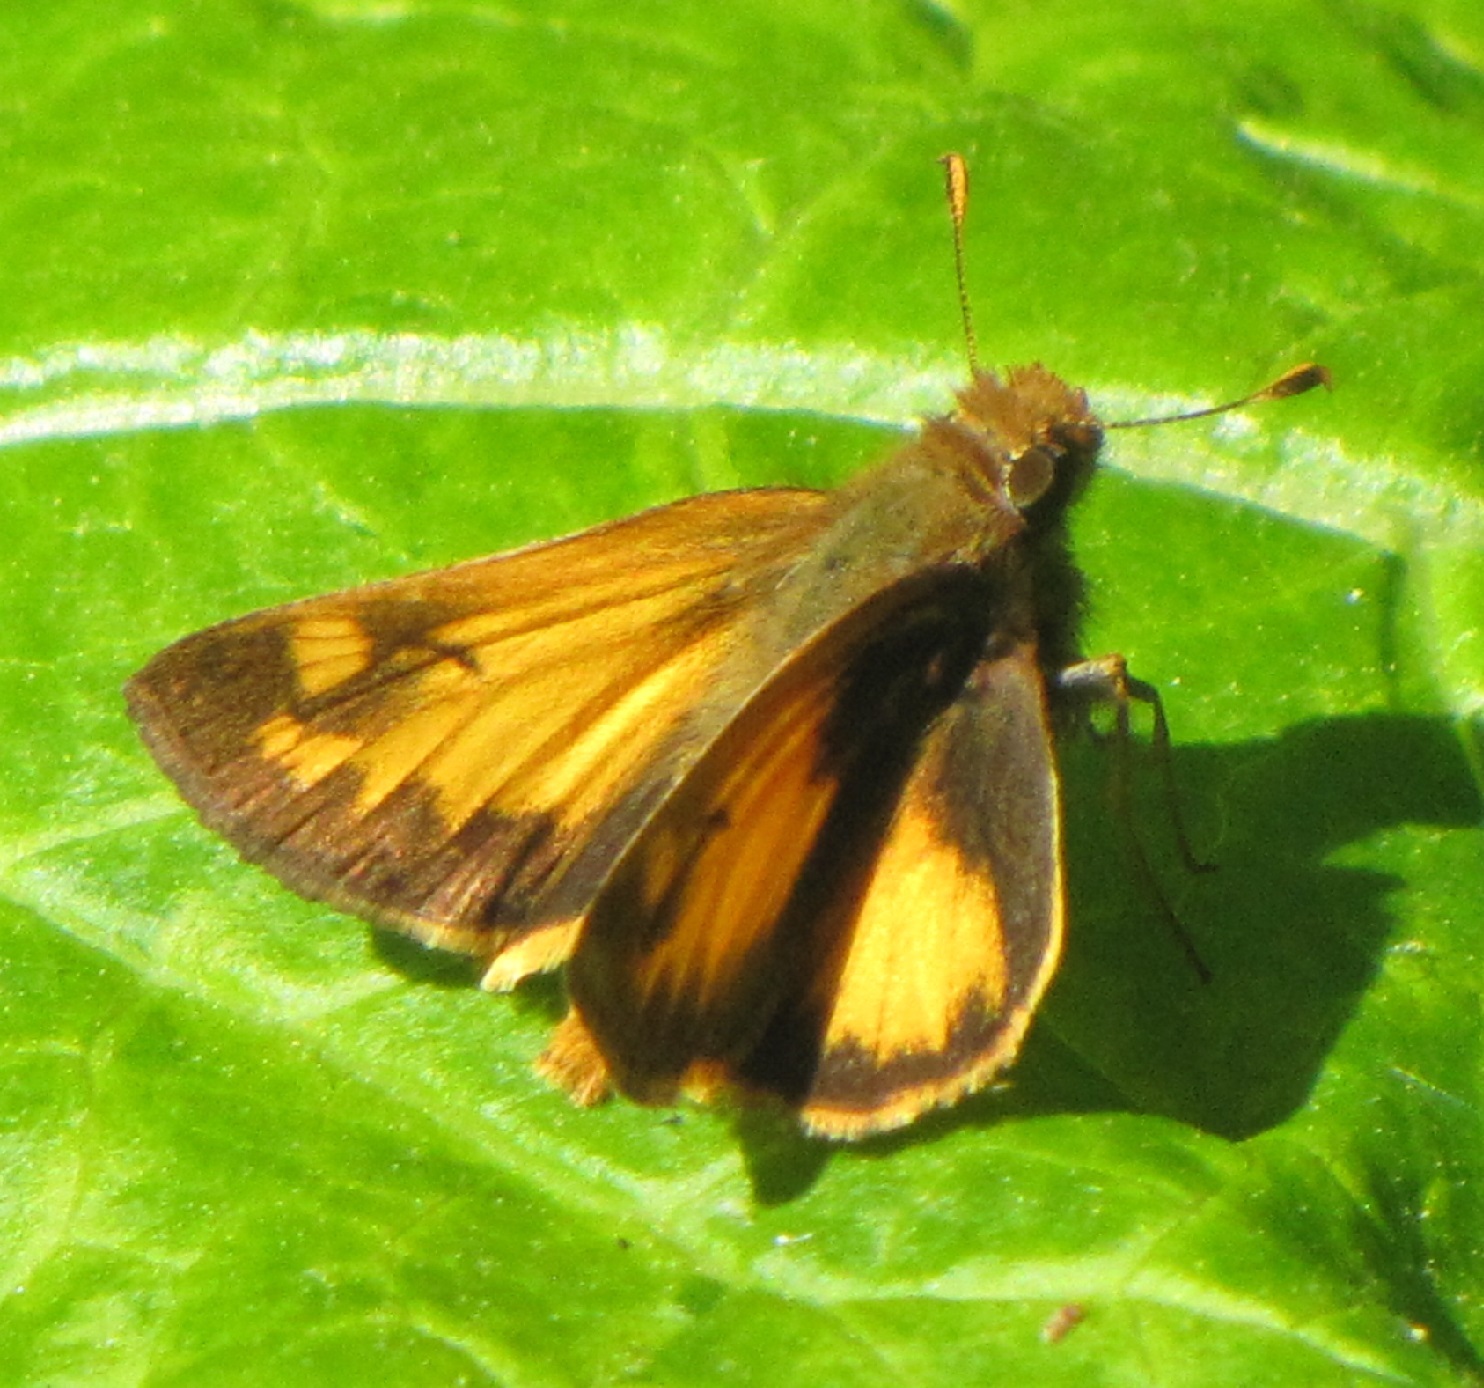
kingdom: Animalia
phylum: Arthropoda
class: Insecta
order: Lepidoptera
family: Hesperiidae
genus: Lon
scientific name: Lon zabulon
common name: Zabulon skipper
